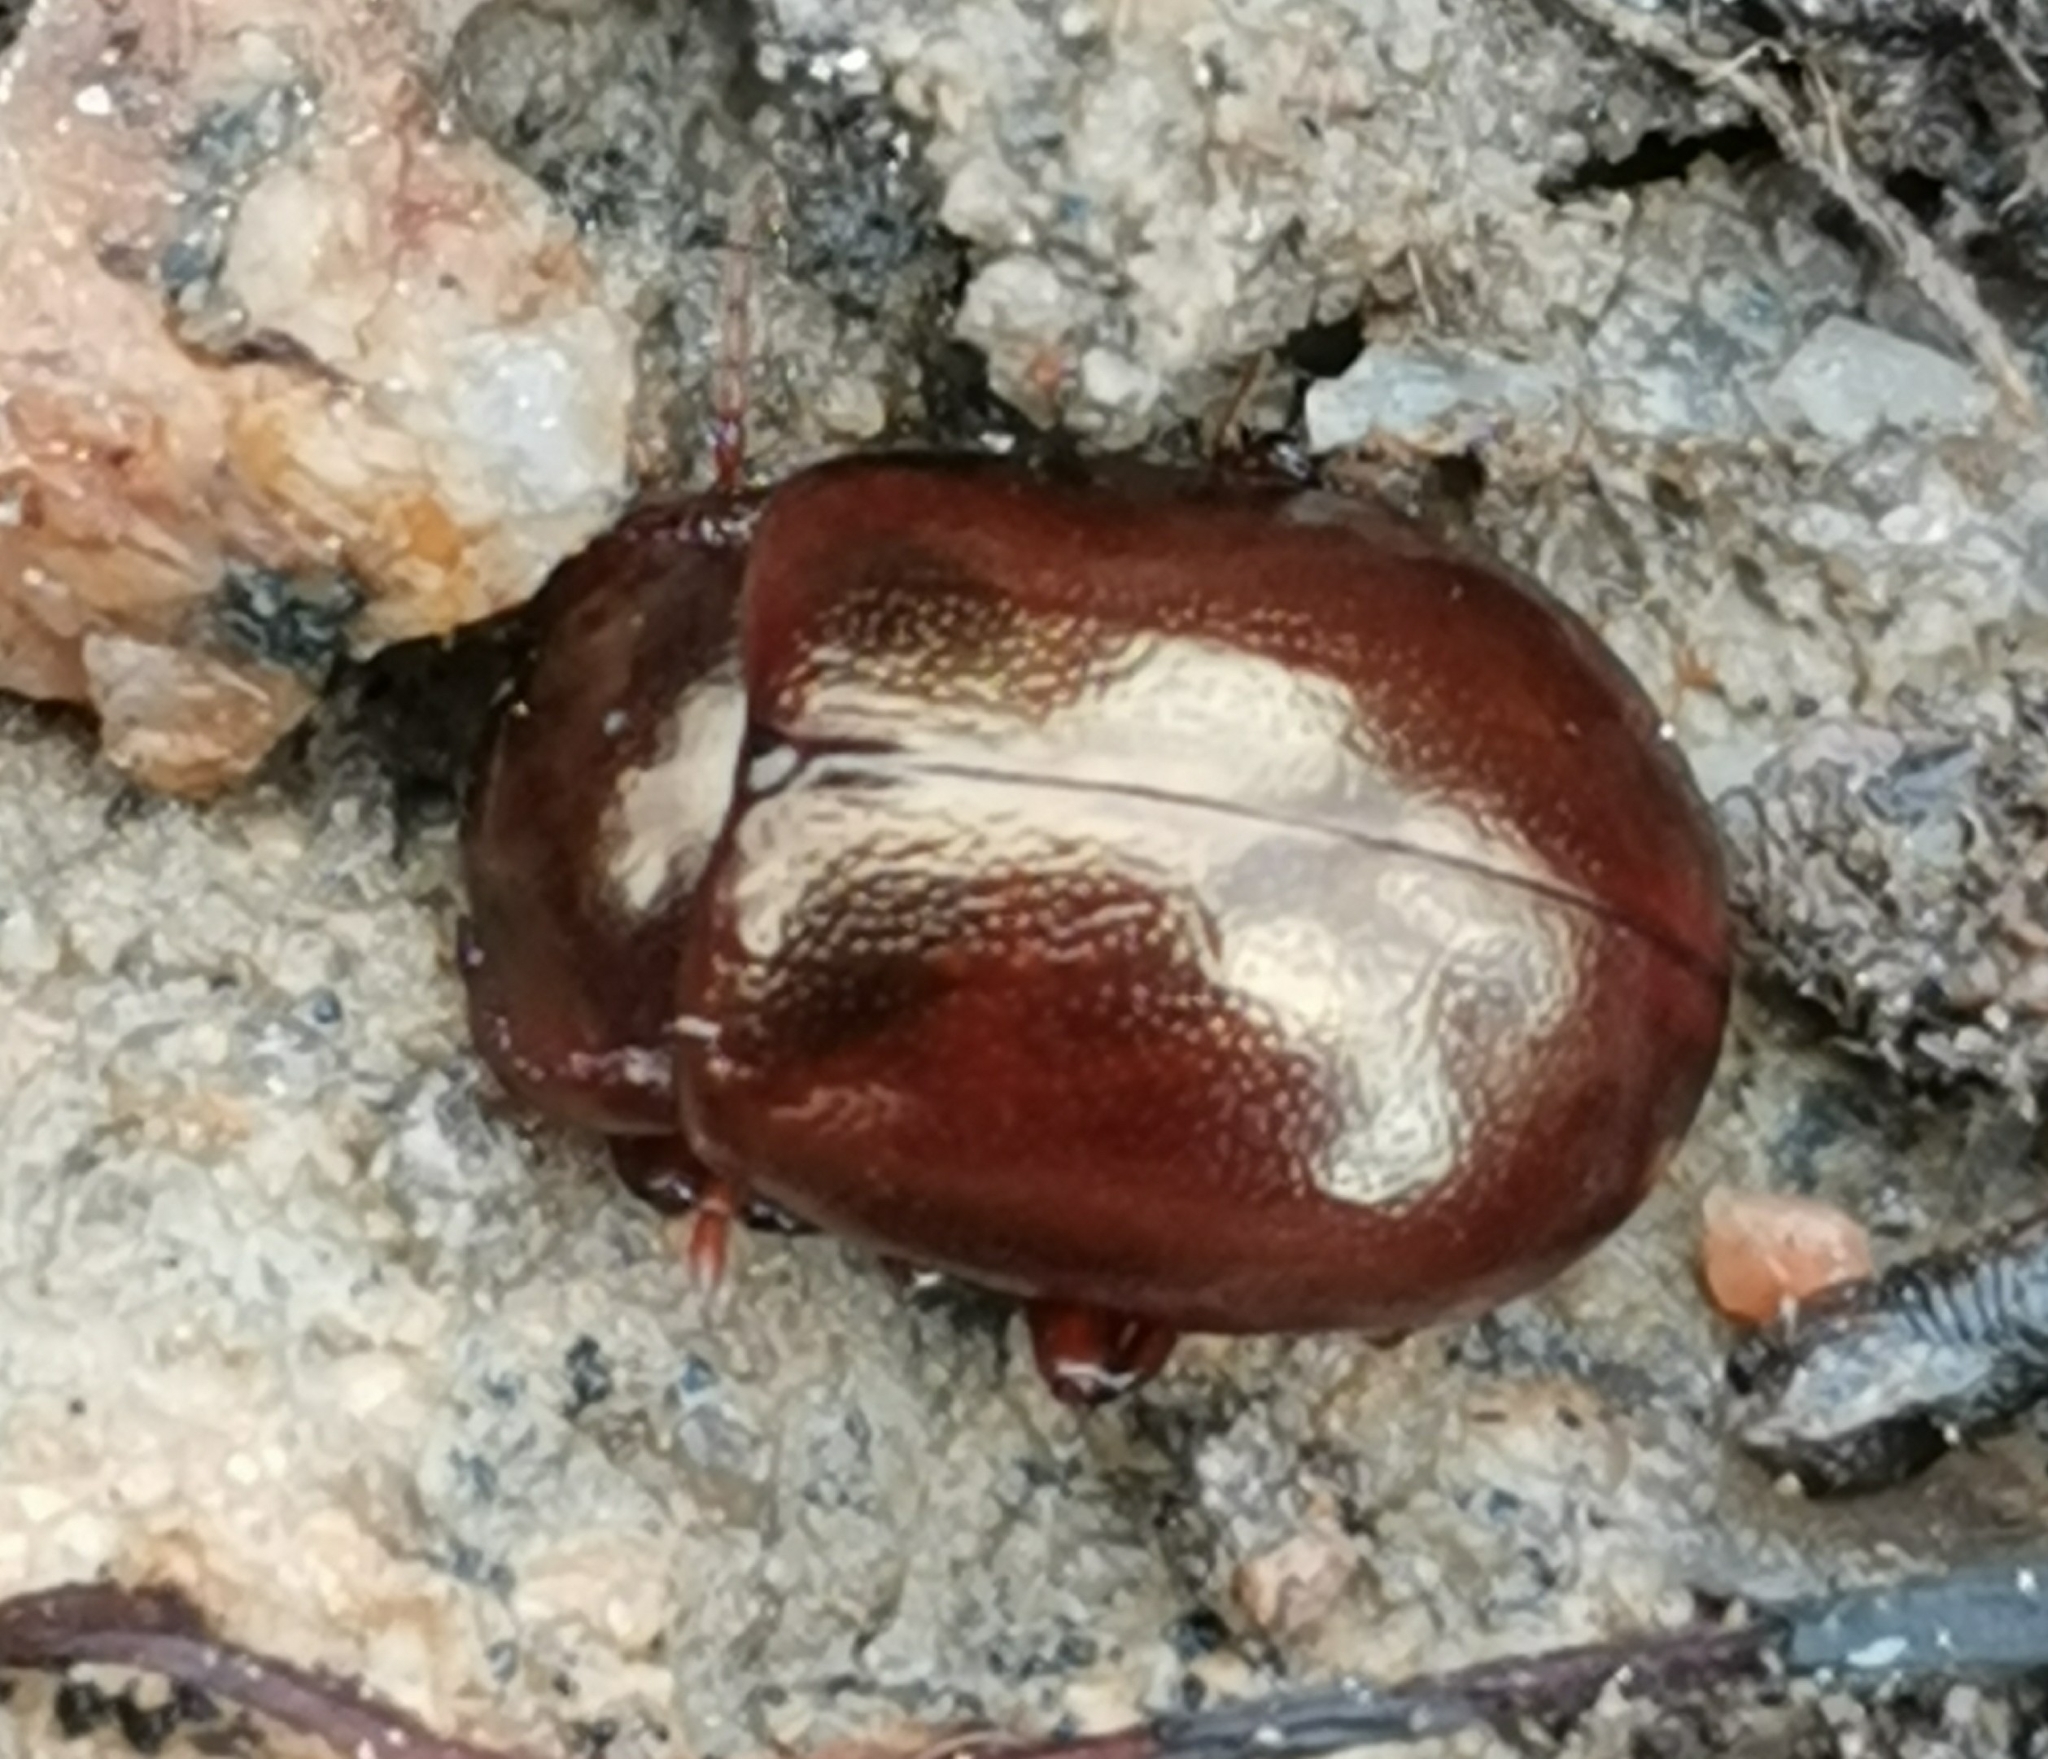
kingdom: Animalia
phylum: Arthropoda
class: Insecta
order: Coleoptera
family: Chrysomelidae
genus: Chrysolina
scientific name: Chrysolina staphylaea
